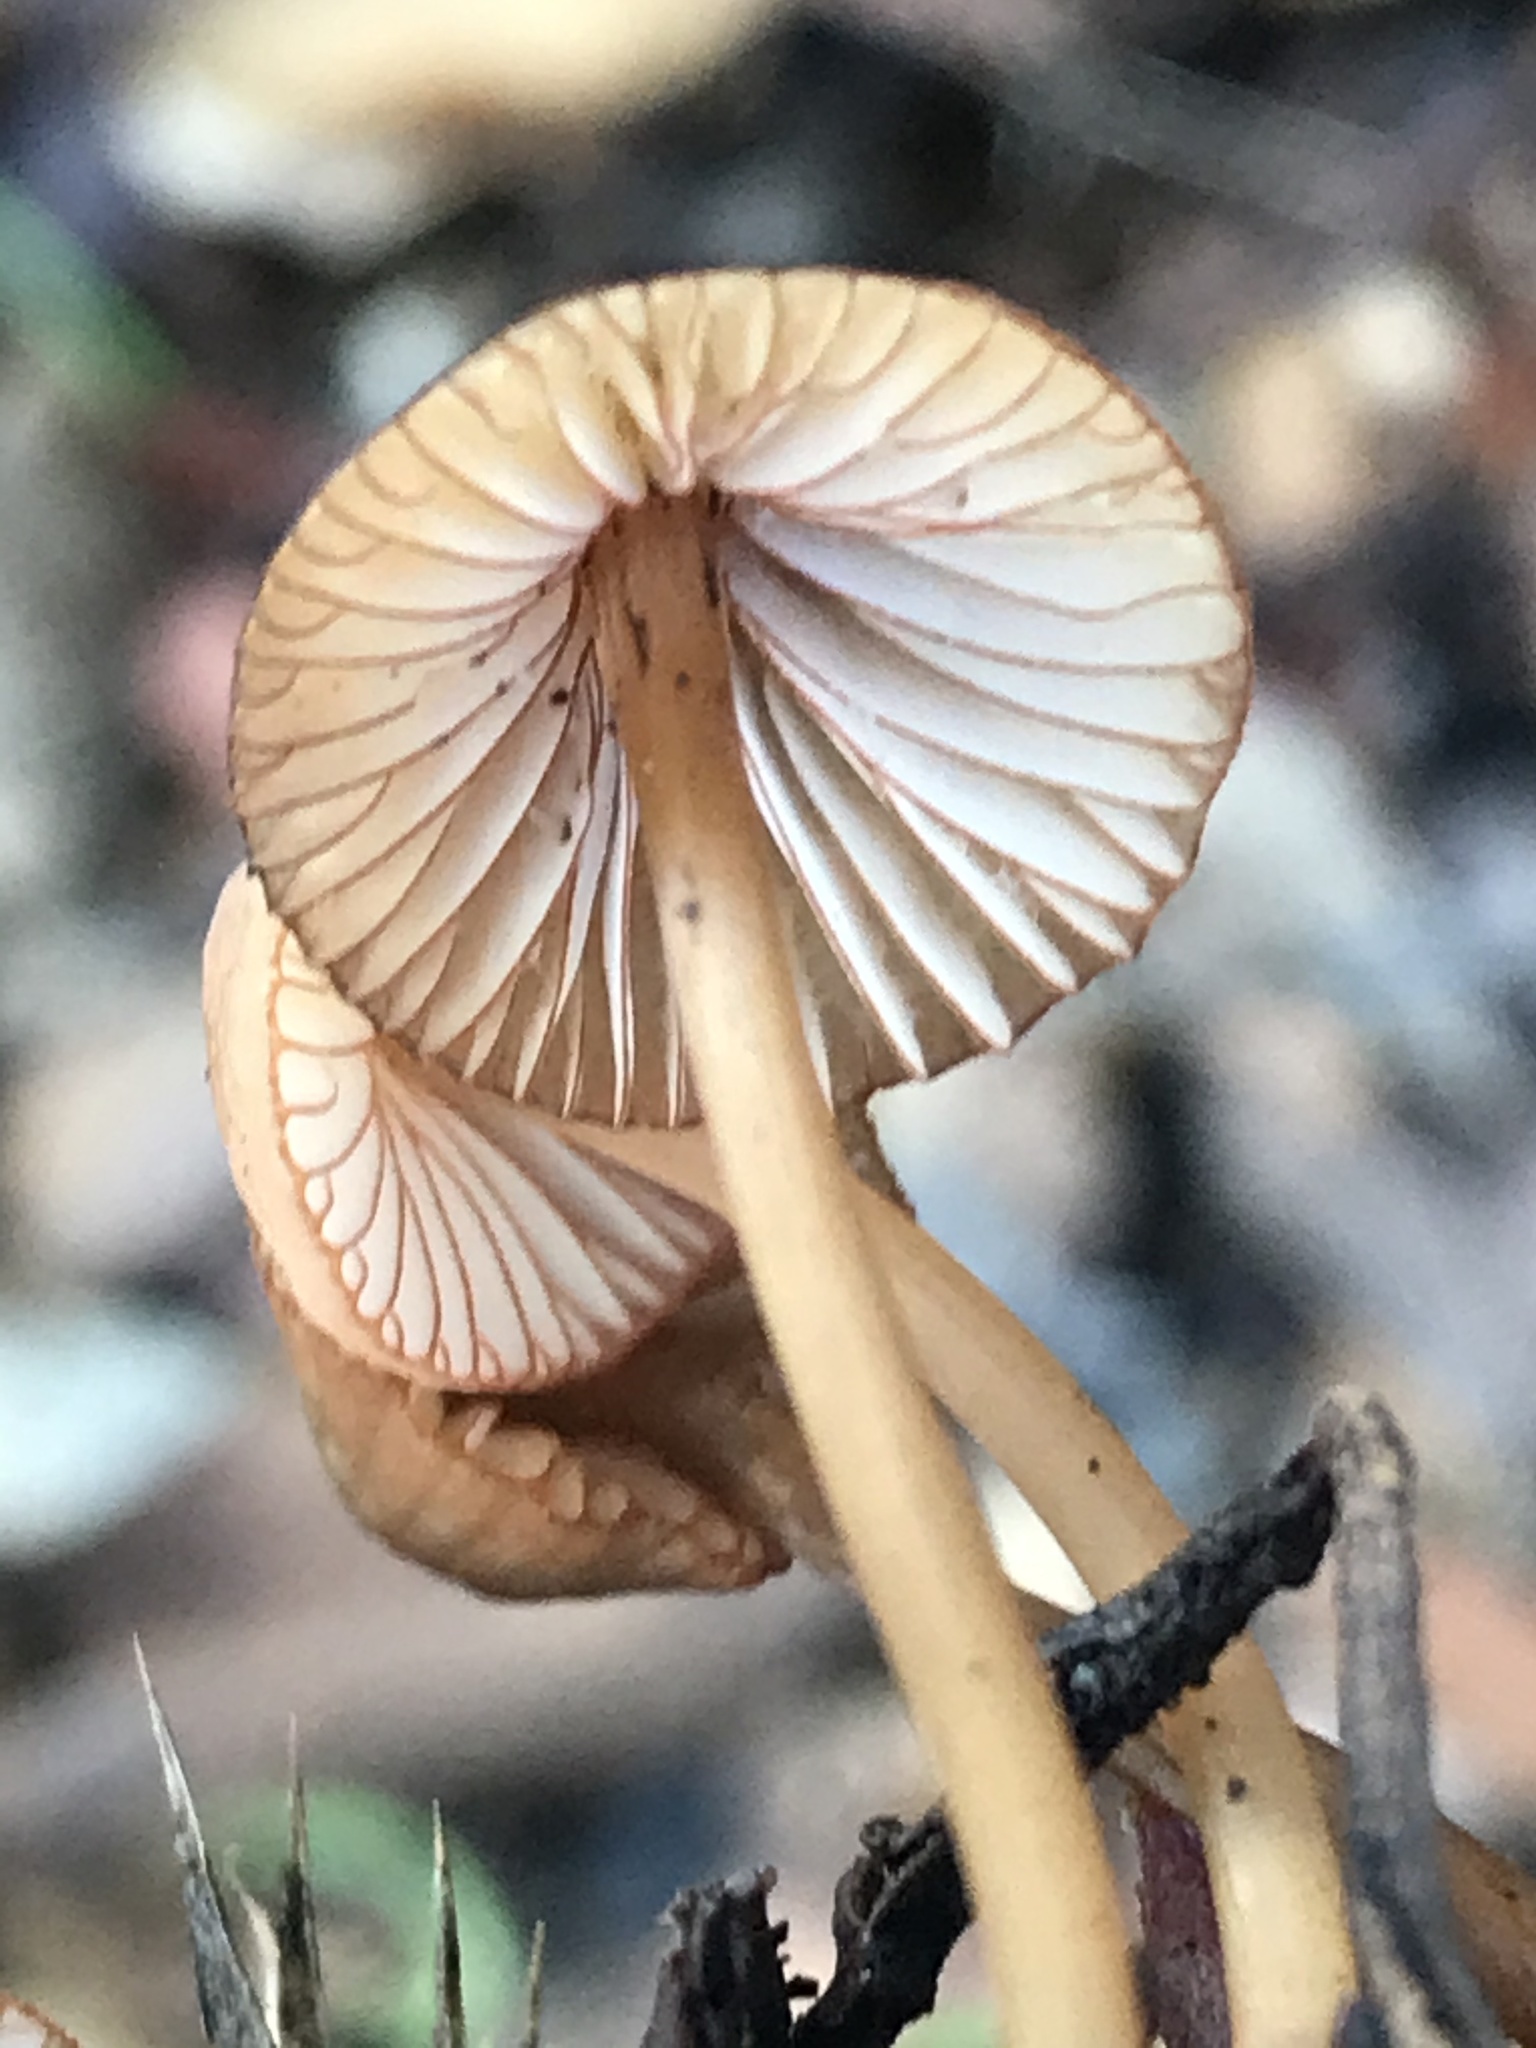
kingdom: Fungi
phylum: Basidiomycota
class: Agaricomycetes
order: Agaricales
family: Mycenaceae
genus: Mycena
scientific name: Mycena
